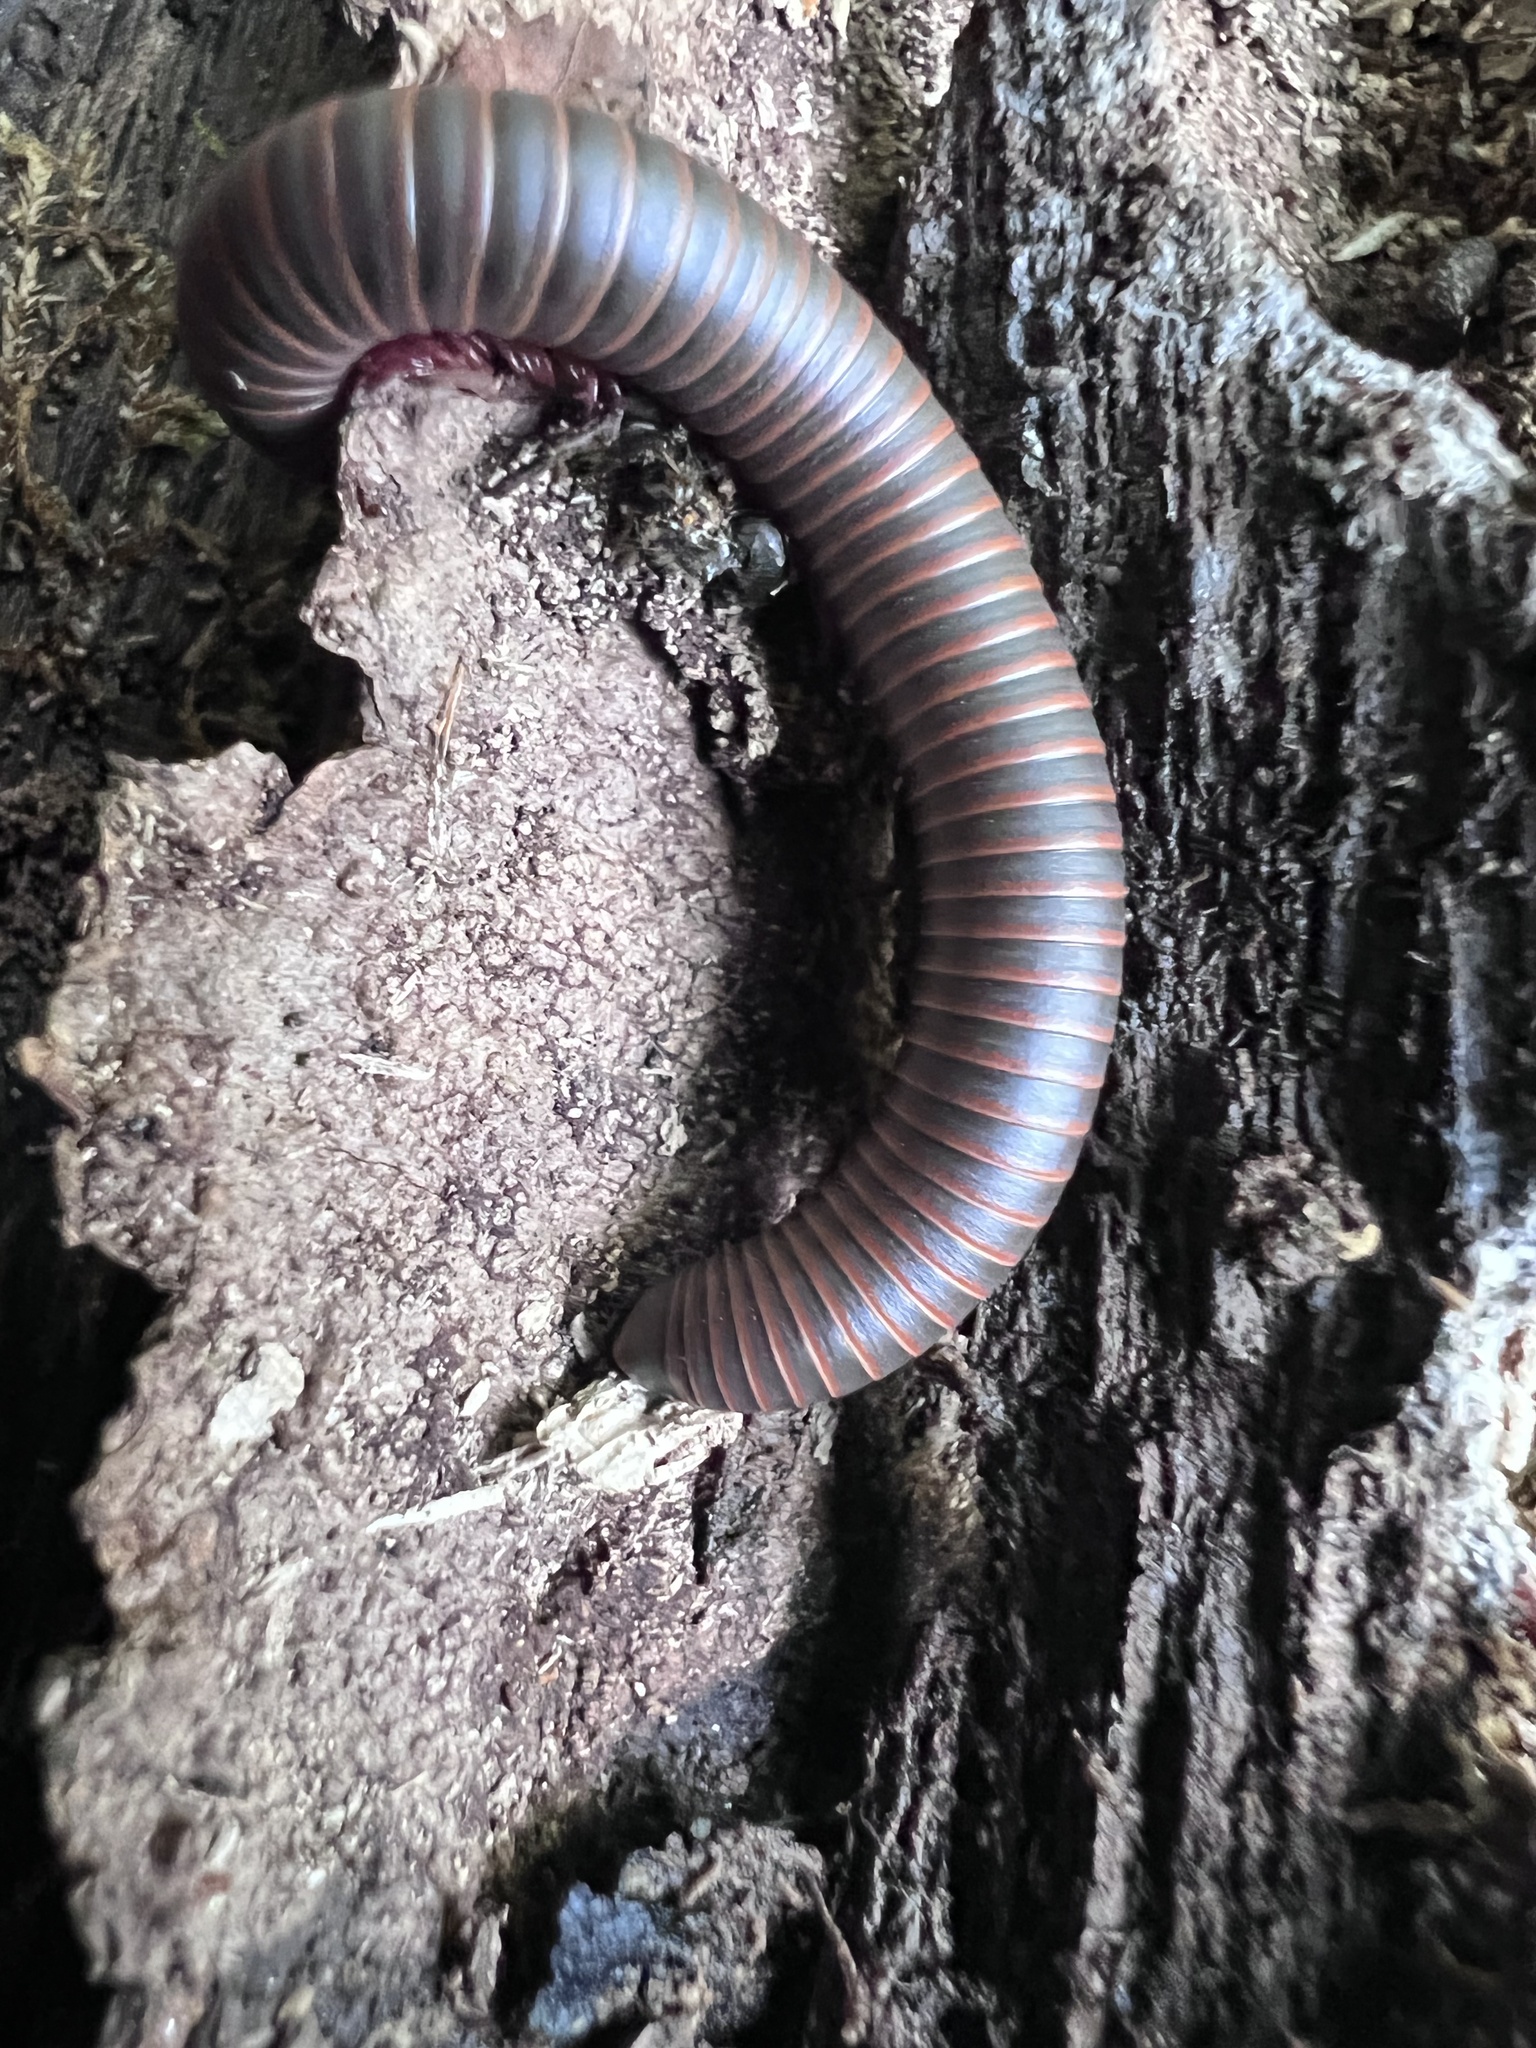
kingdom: Animalia
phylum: Arthropoda
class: Diplopoda
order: Spirobolida
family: Spirobolidae
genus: Narceus
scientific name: Narceus
